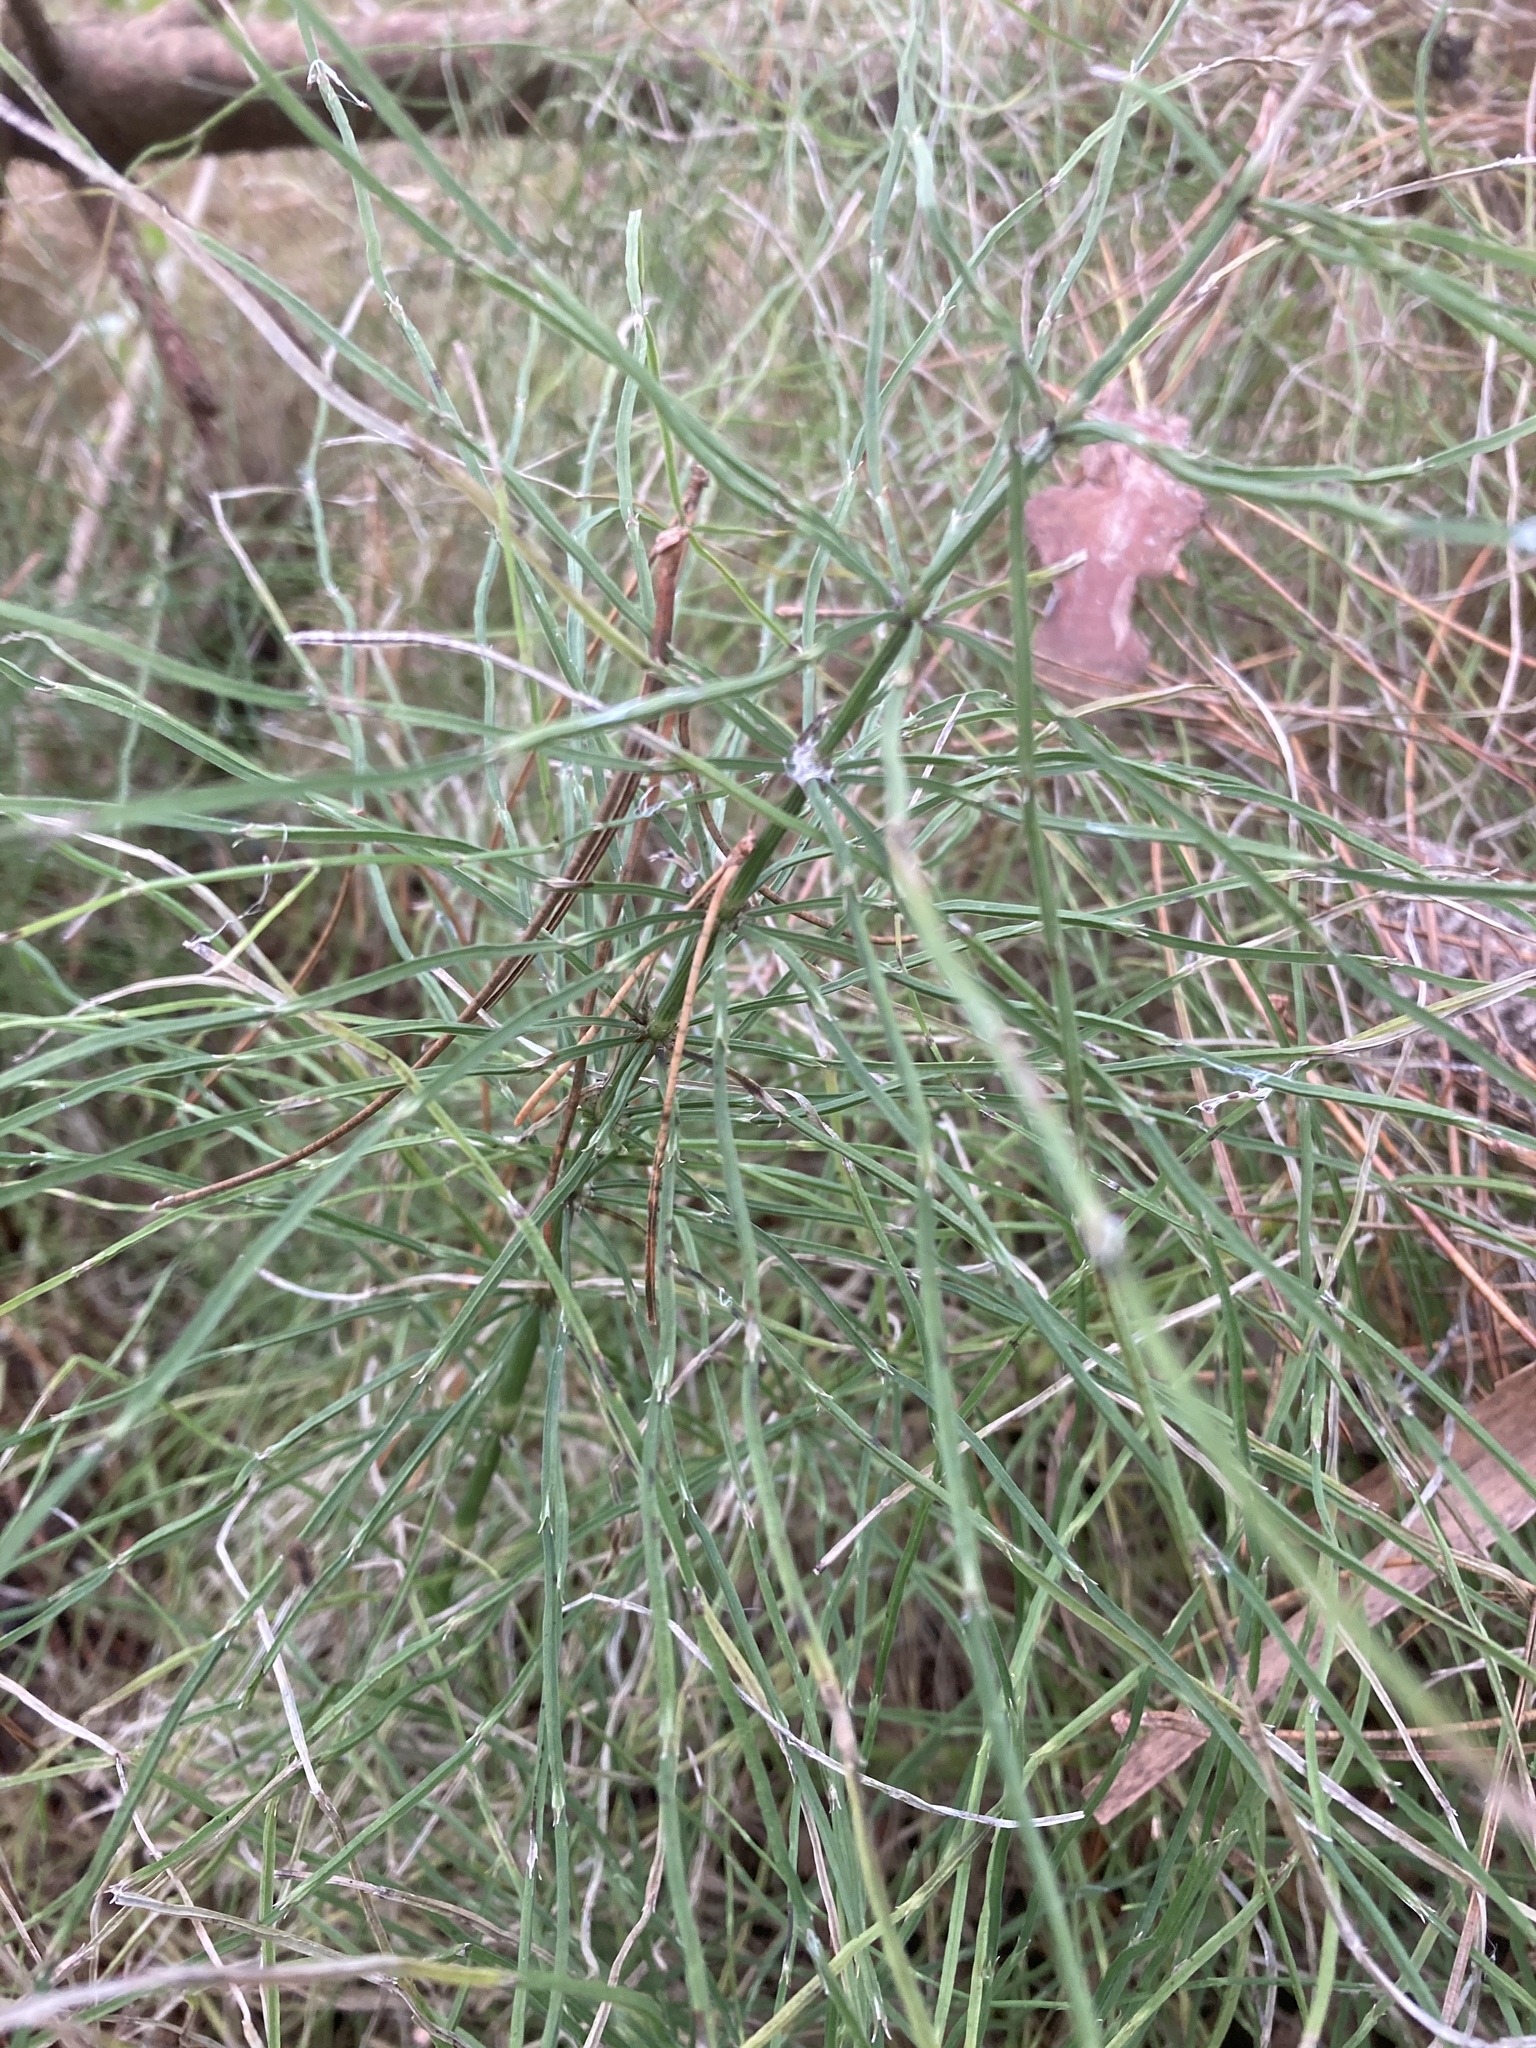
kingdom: Plantae
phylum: Tracheophyta
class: Polypodiopsida
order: Equisetales
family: Equisetaceae
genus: Equisetum
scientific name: Equisetum arvense
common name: Field horsetail
